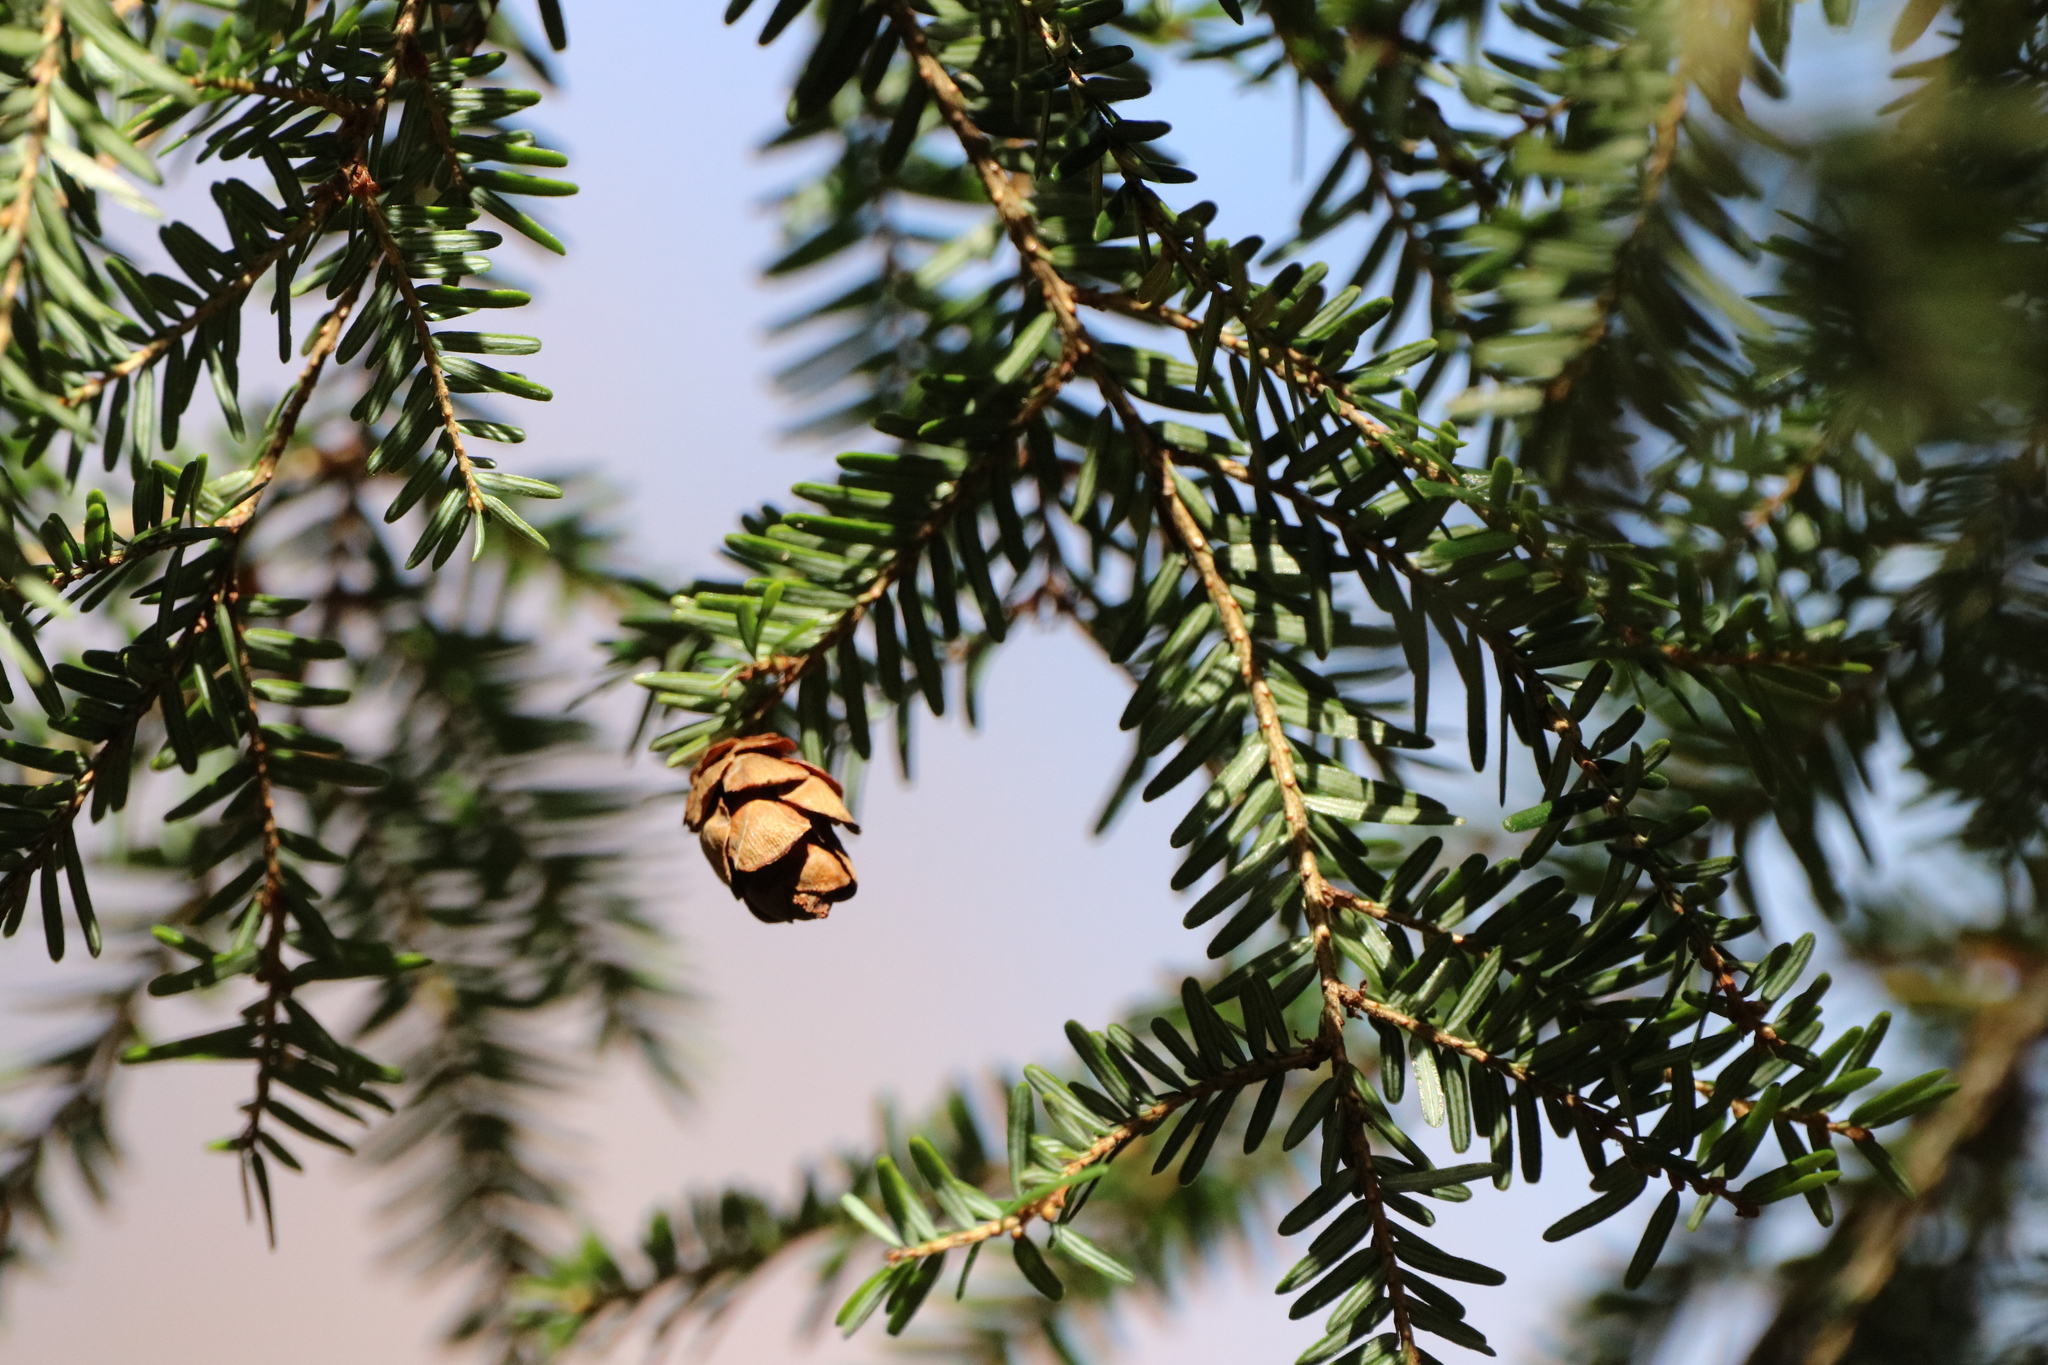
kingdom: Plantae
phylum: Tracheophyta
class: Pinopsida
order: Pinales
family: Pinaceae
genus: Tsuga
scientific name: Tsuga canadensis
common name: Eastern hemlock
